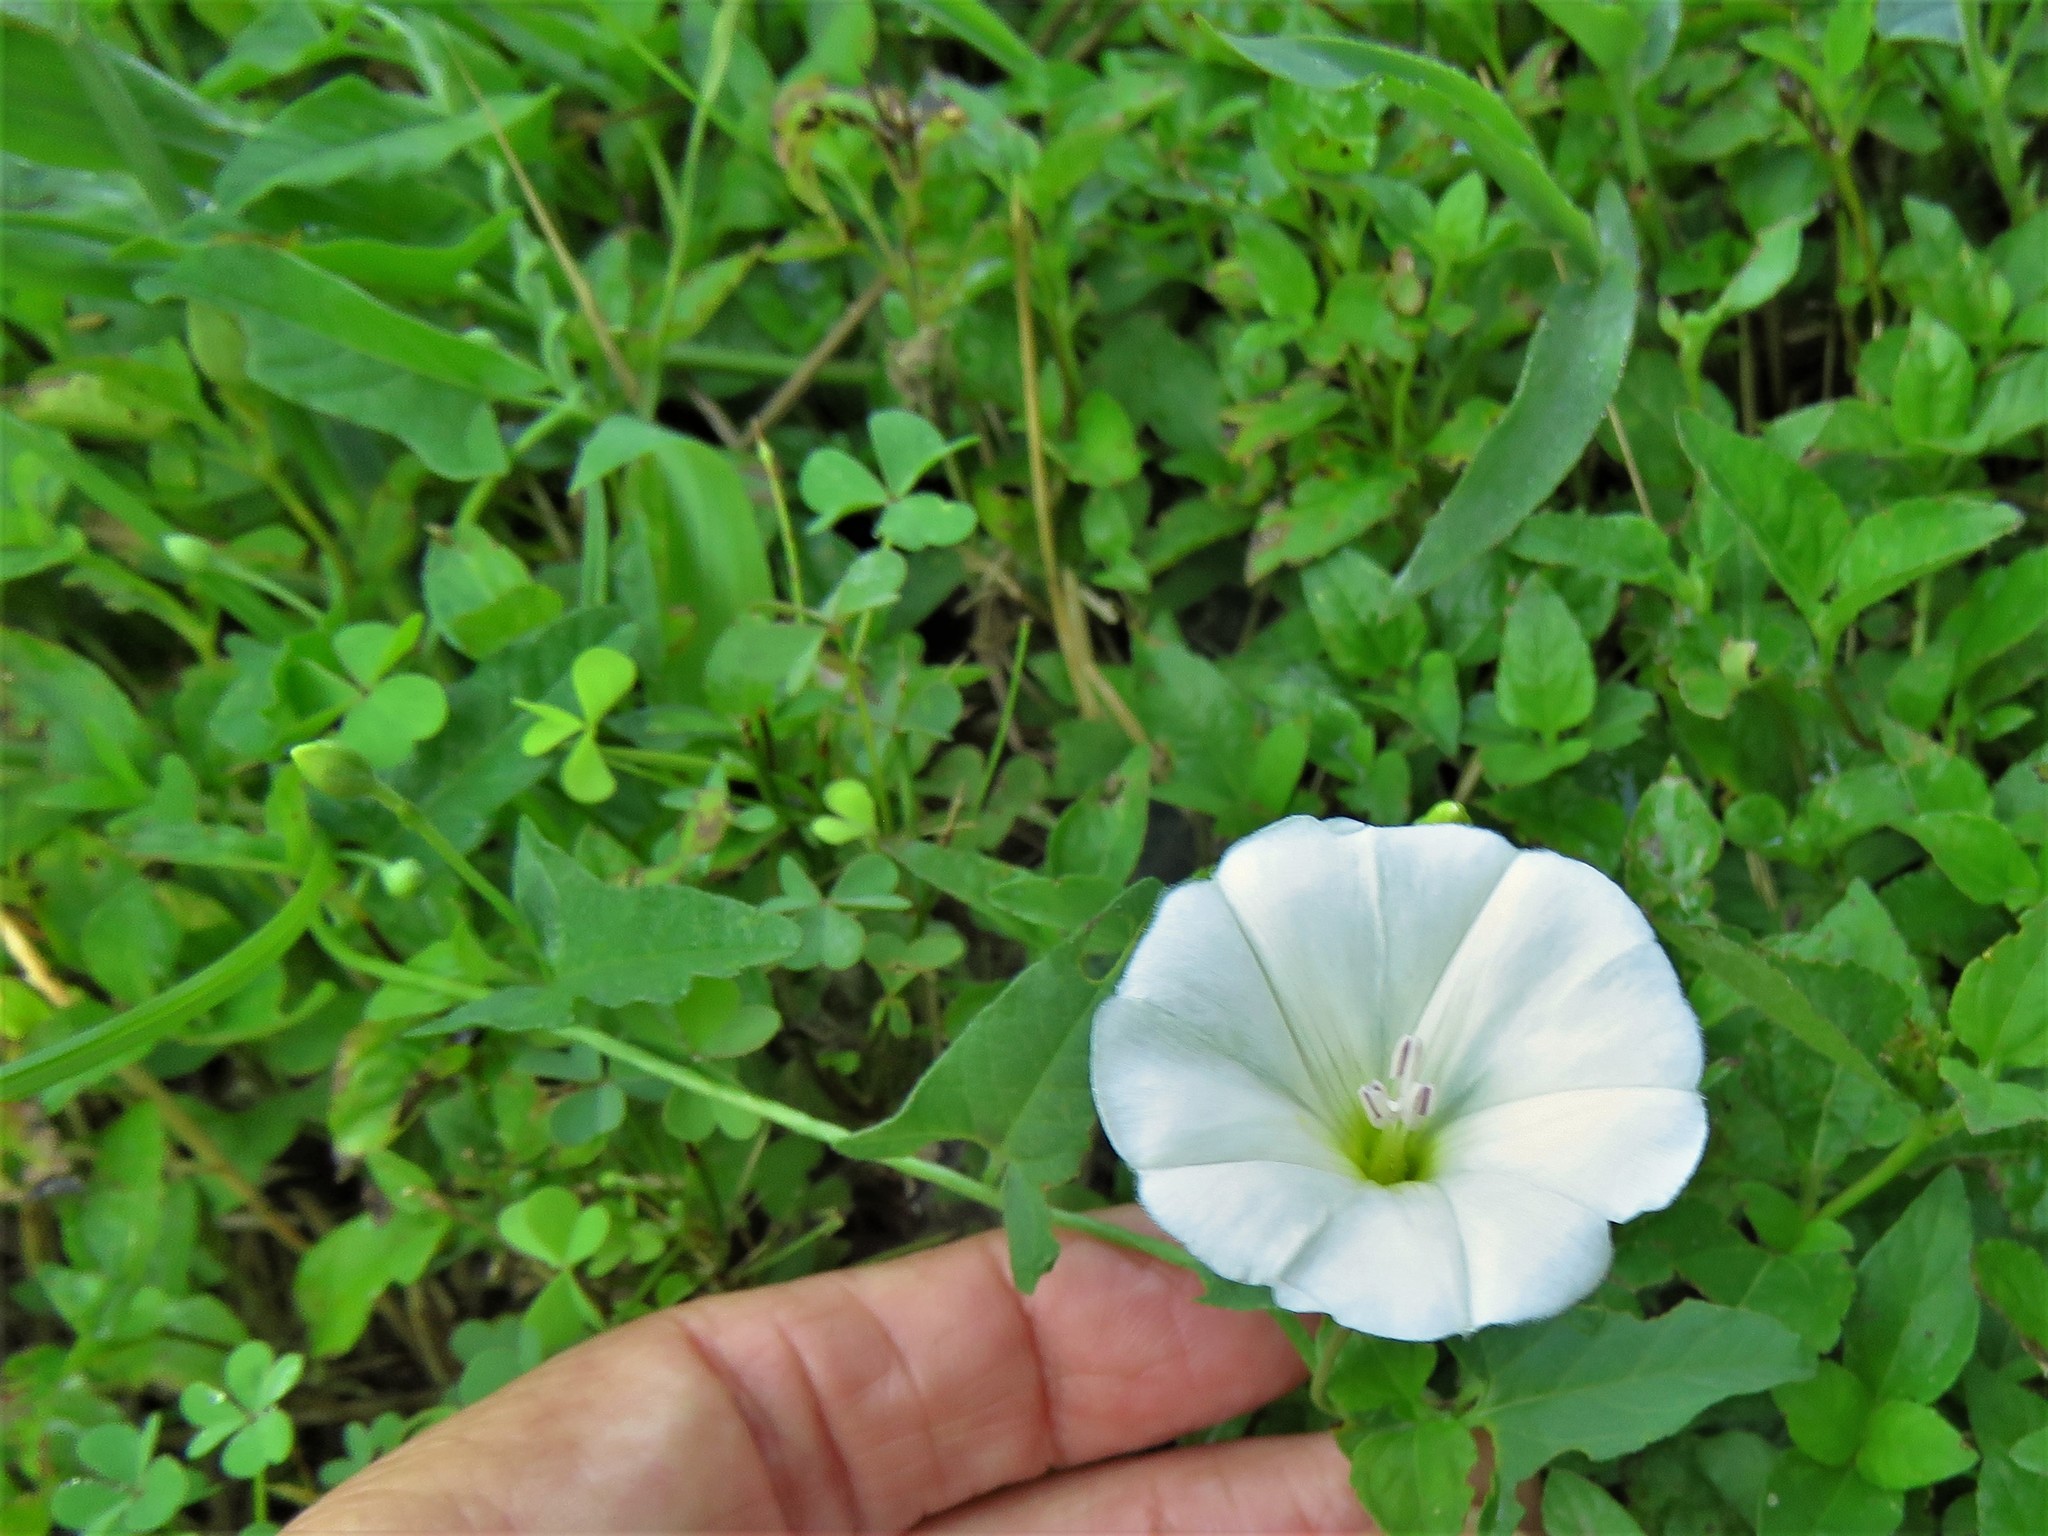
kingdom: Plantae
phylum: Tracheophyta
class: Magnoliopsida
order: Solanales
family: Convolvulaceae
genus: Convolvulus
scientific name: Convolvulus arvensis
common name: Field bindweed
